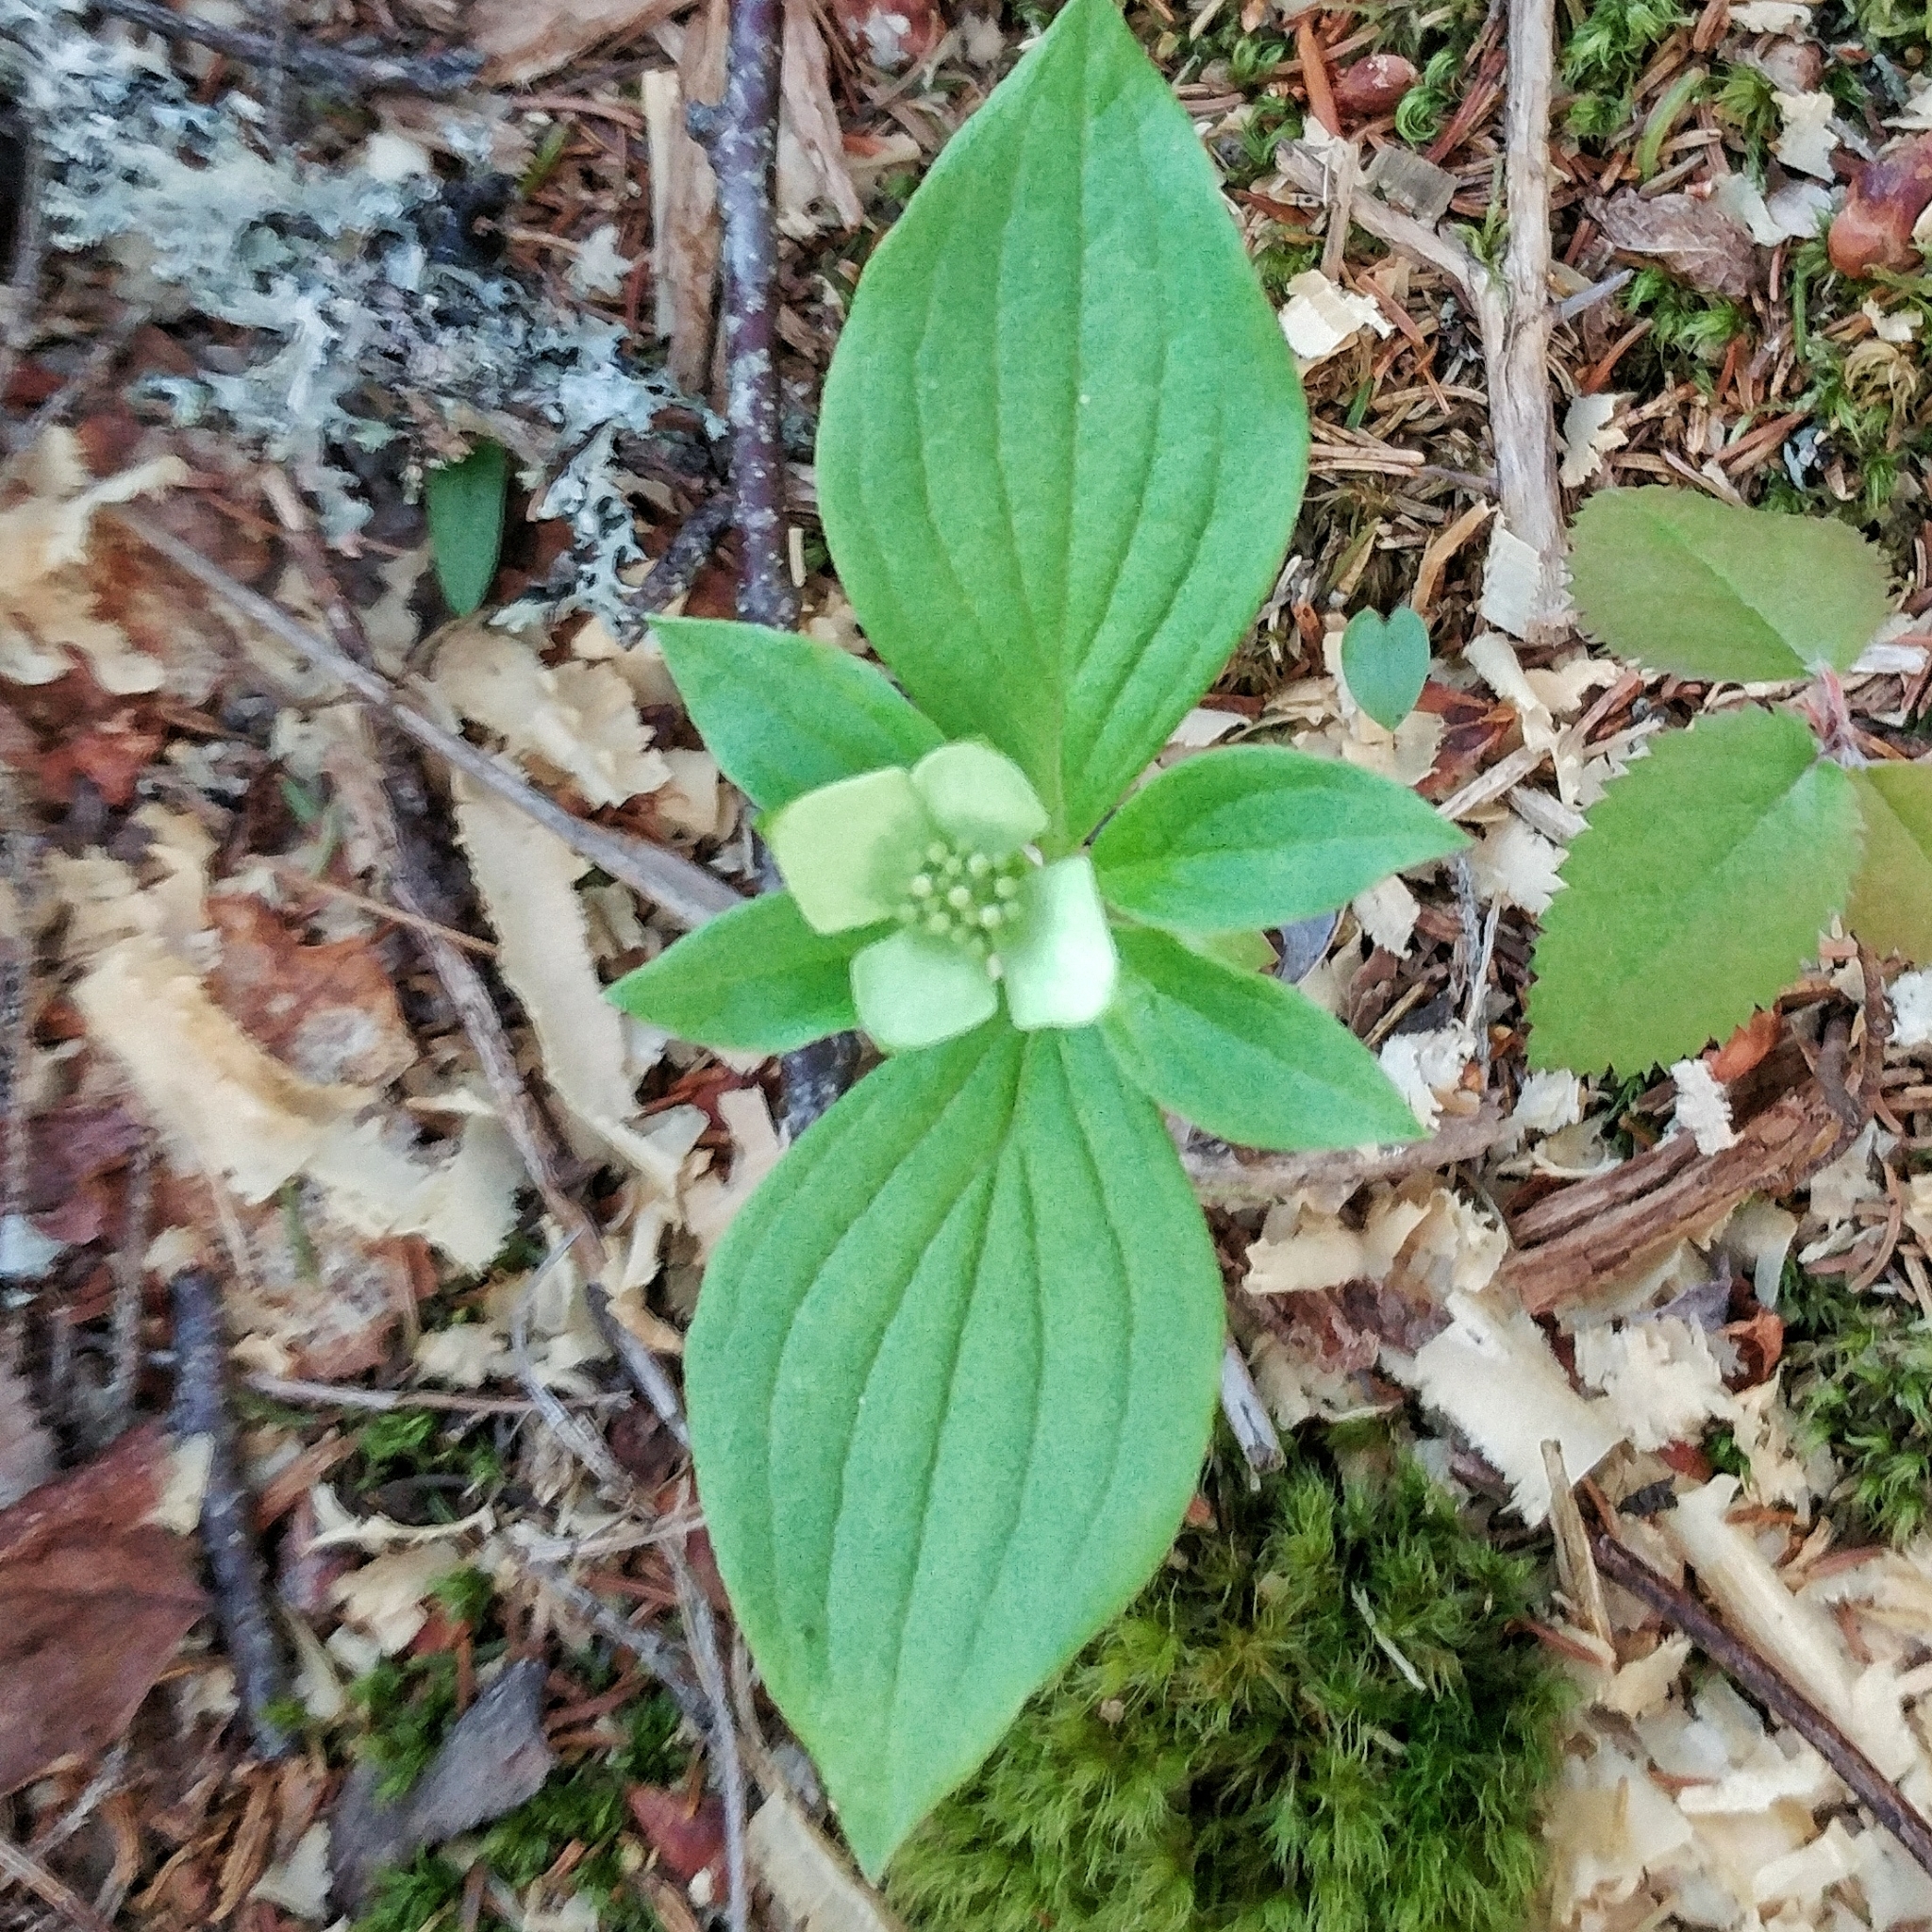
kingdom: Plantae
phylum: Tracheophyta
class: Magnoliopsida
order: Cornales
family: Cornaceae
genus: Cornus
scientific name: Cornus canadensis
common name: Creeping dogwood
